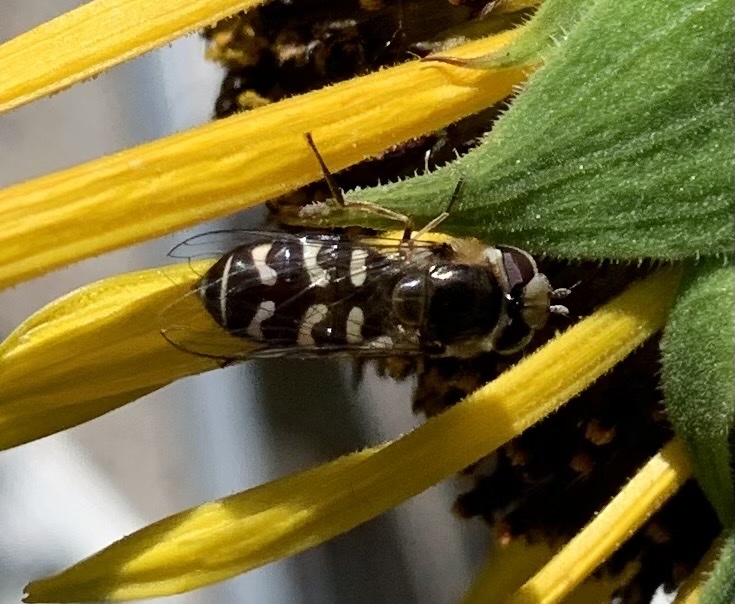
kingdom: Animalia
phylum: Arthropoda
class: Insecta
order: Diptera
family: Syrphidae
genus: Scaeva
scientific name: Scaeva pyrastri
